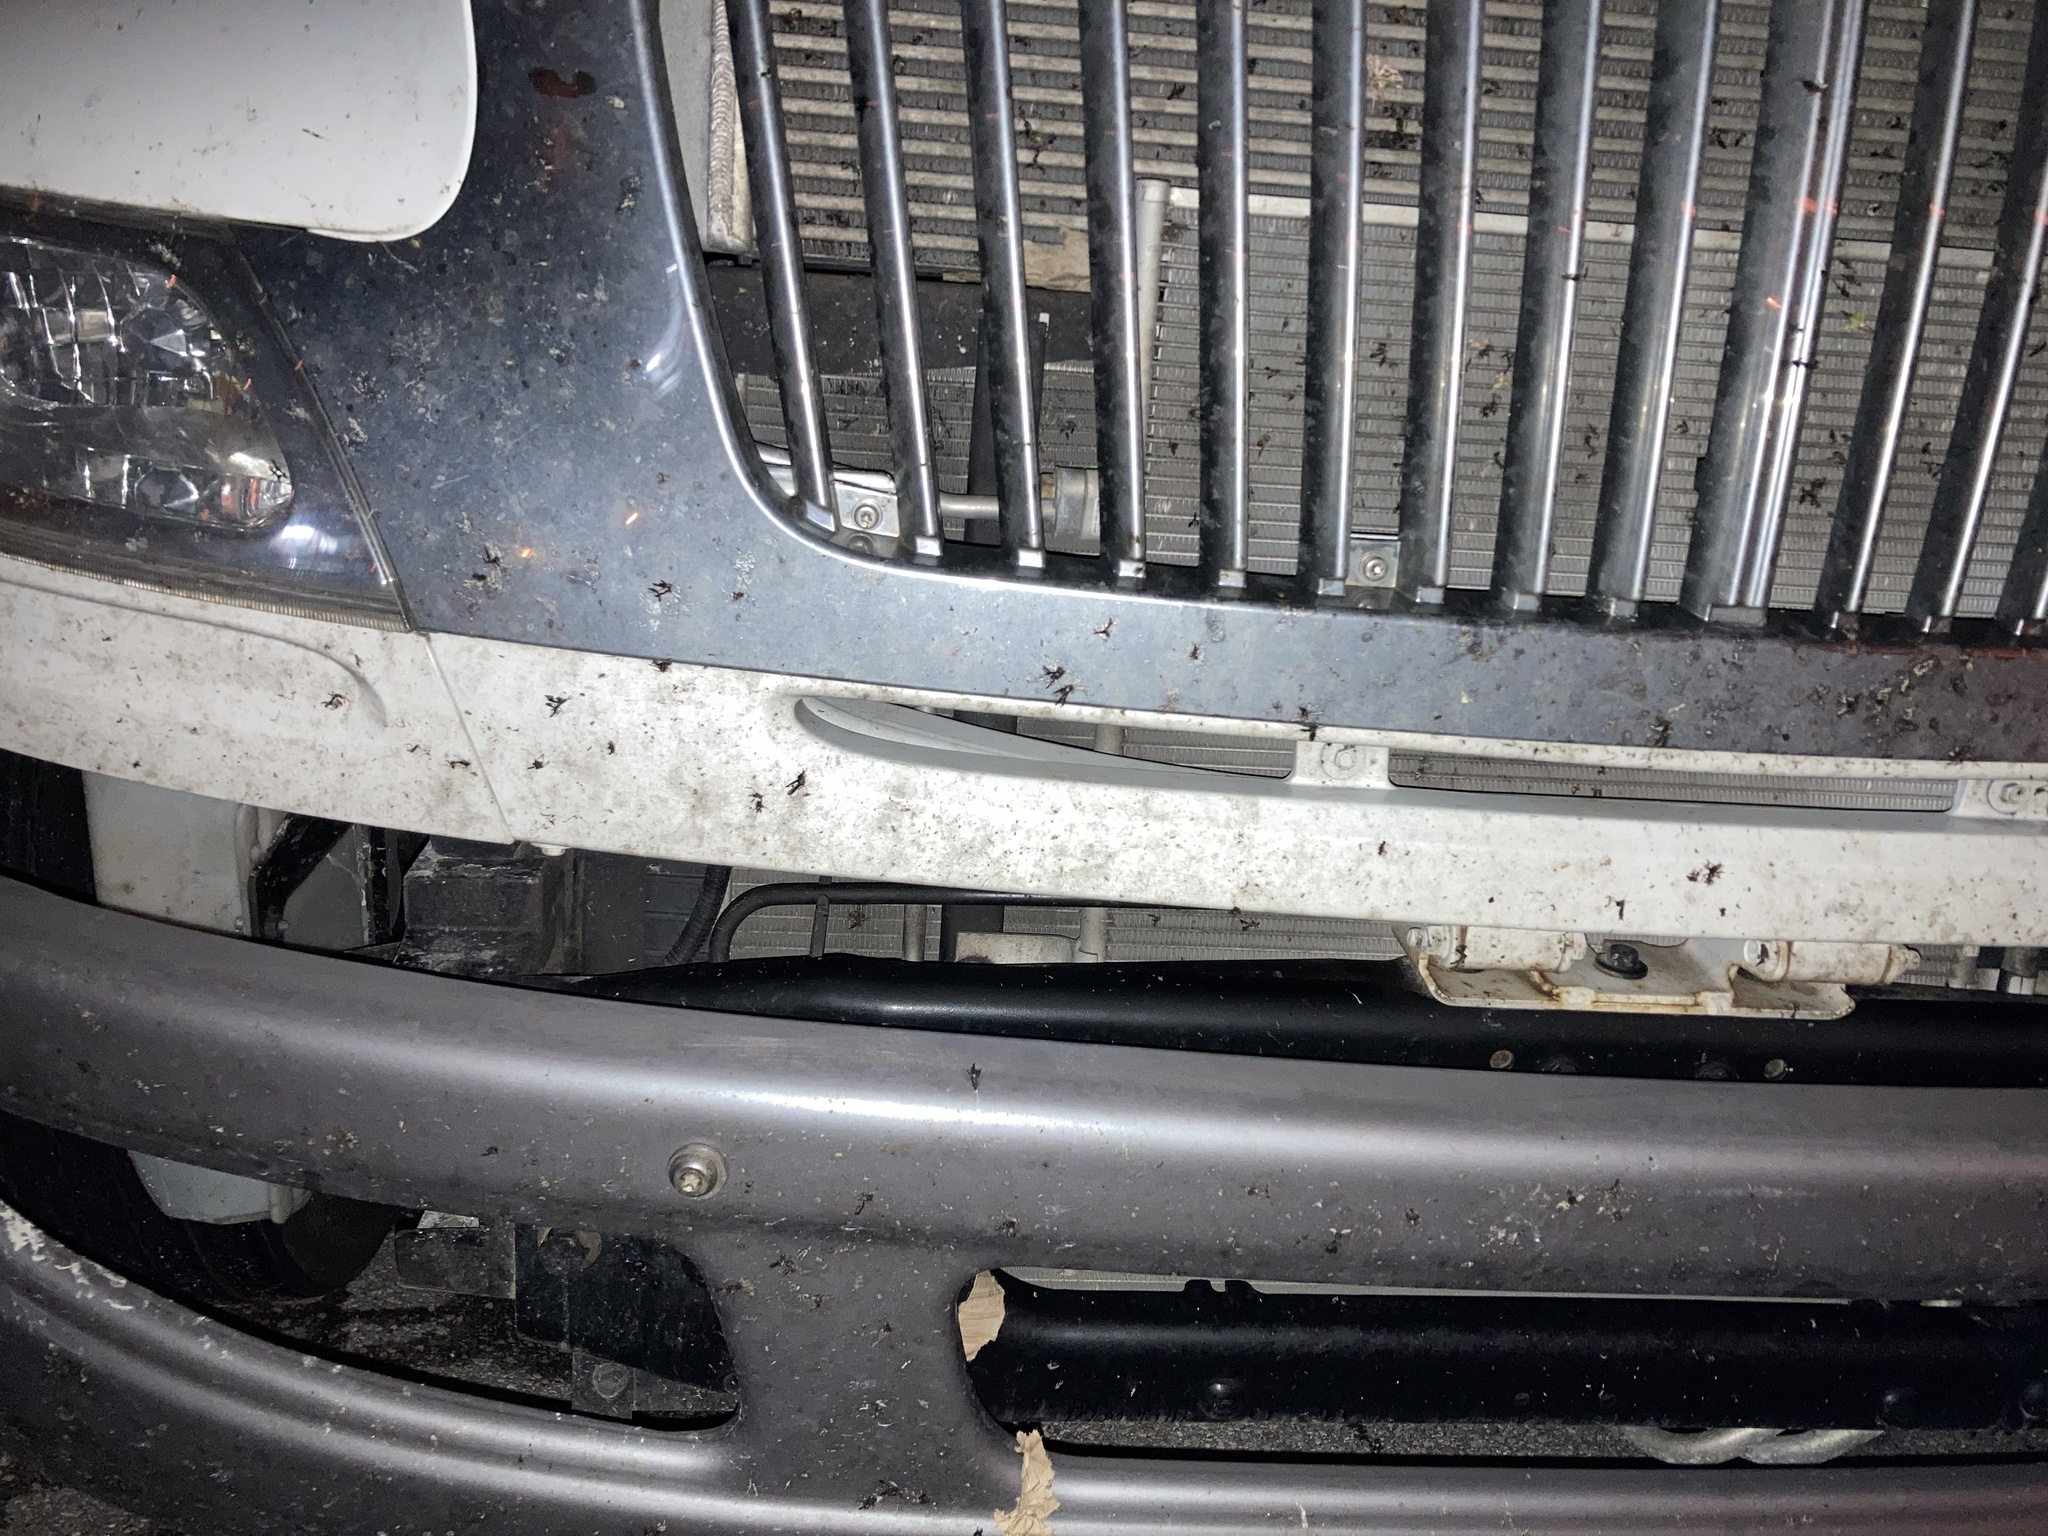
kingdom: Animalia
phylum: Arthropoda
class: Insecta
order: Diptera
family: Bibionidae
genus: Plecia
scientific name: Plecia nearctica
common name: March fly
